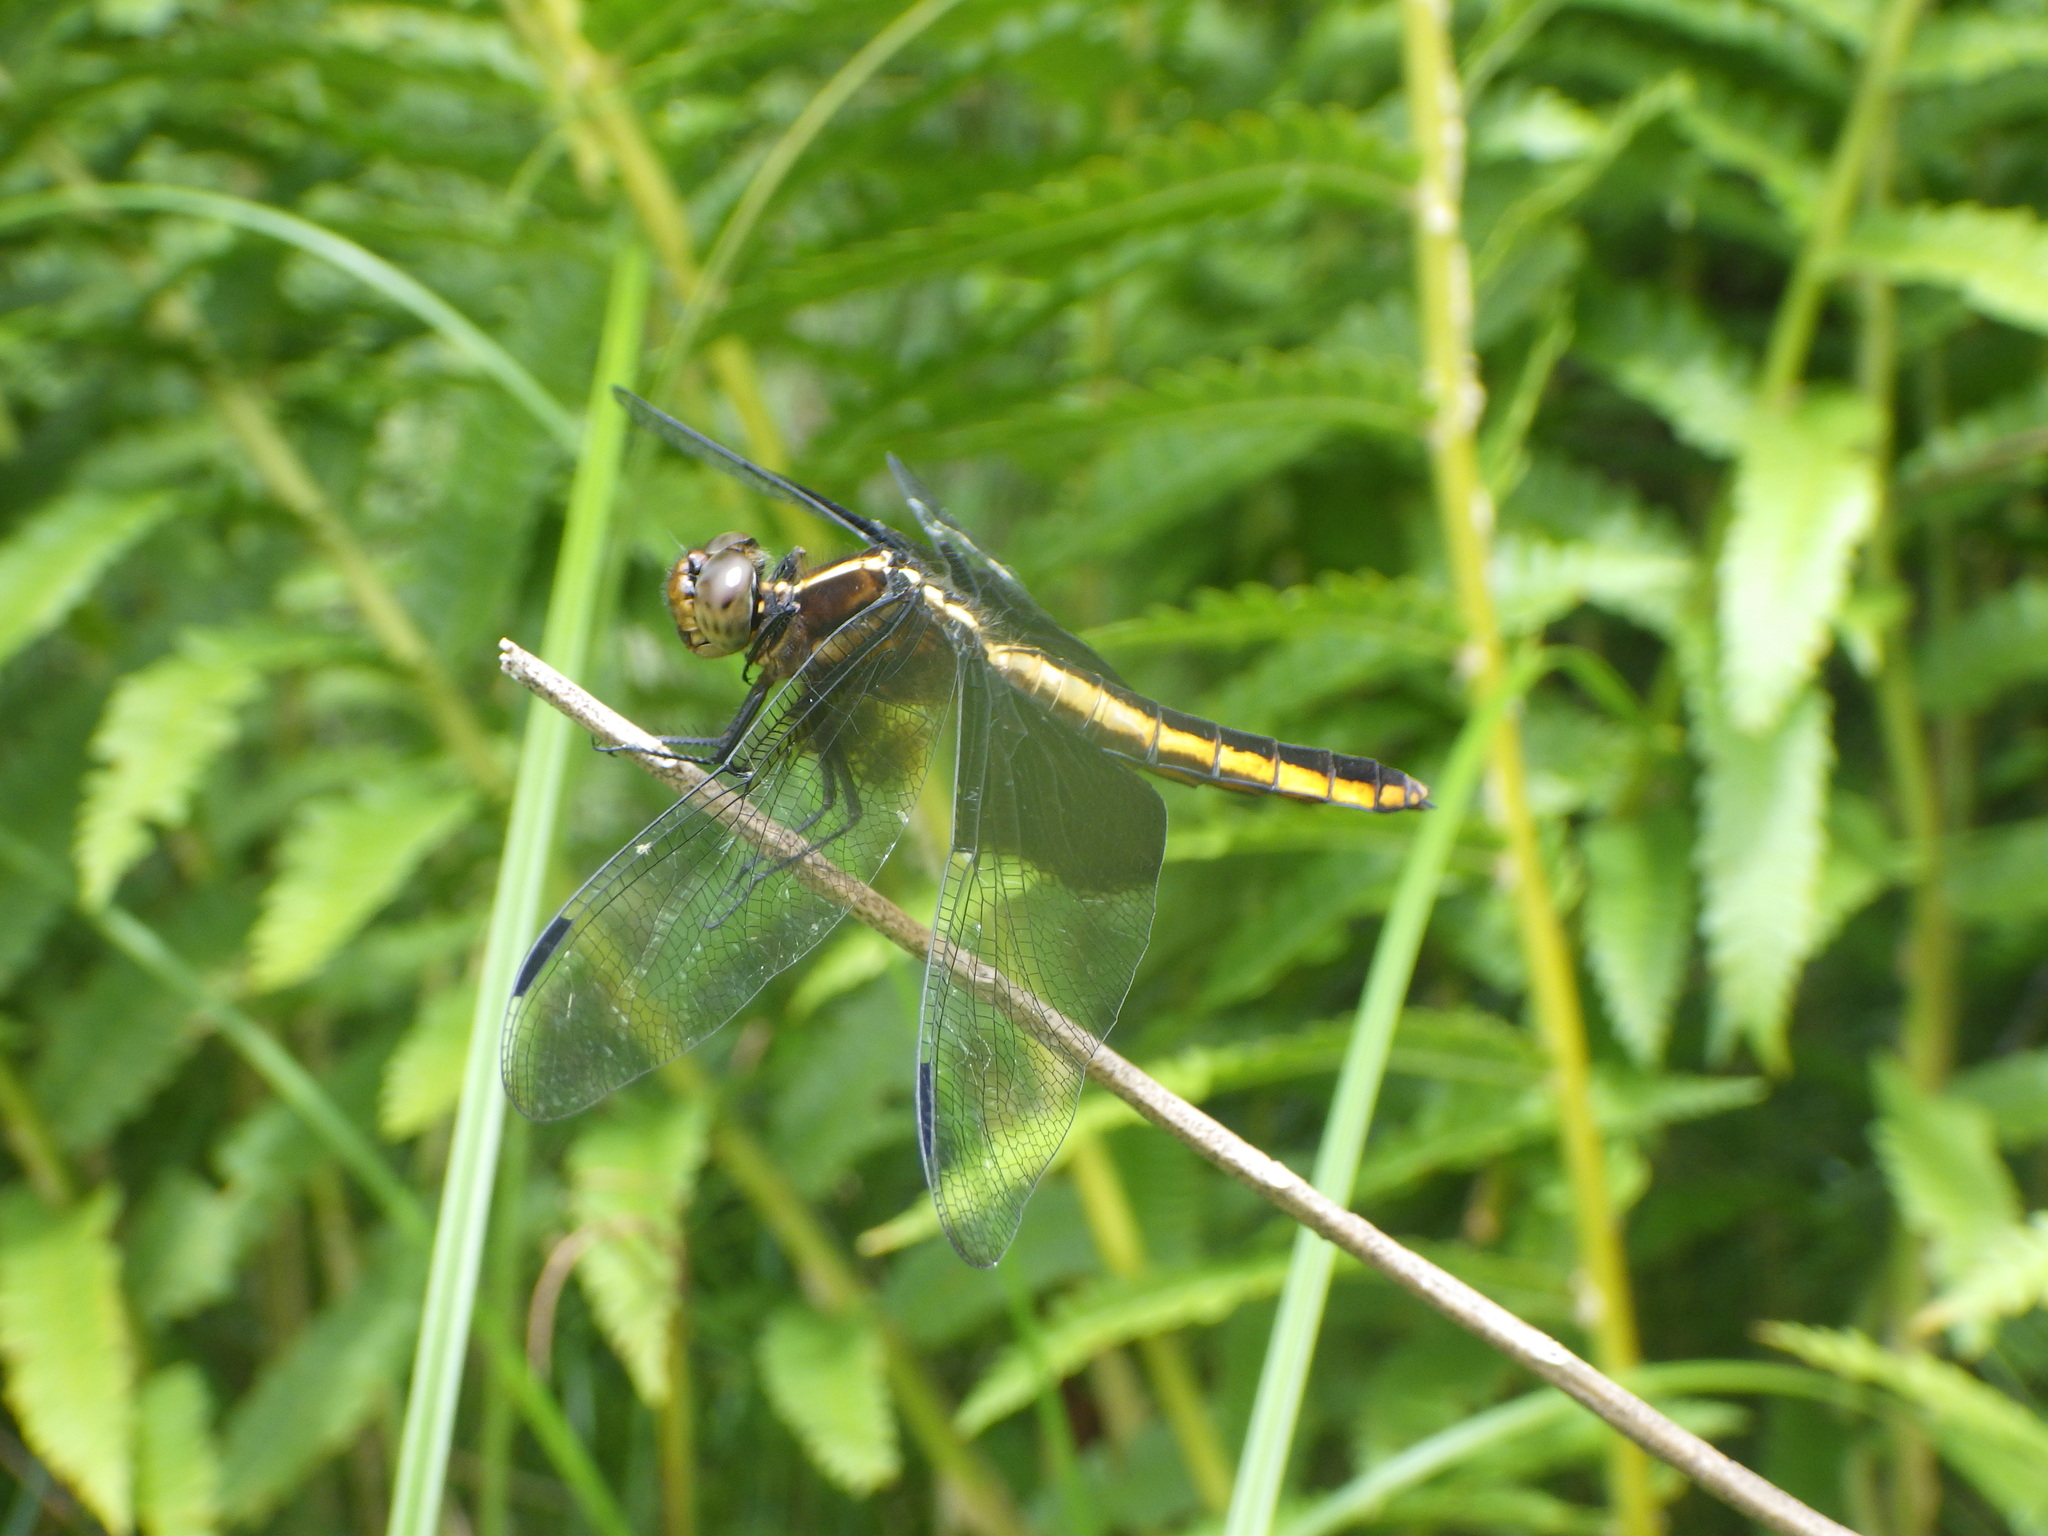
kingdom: Animalia
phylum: Arthropoda
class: Insecta
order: Odonata
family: Libellulidae
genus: Libellula
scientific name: Libellula luctuosa
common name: Widow skimmer
